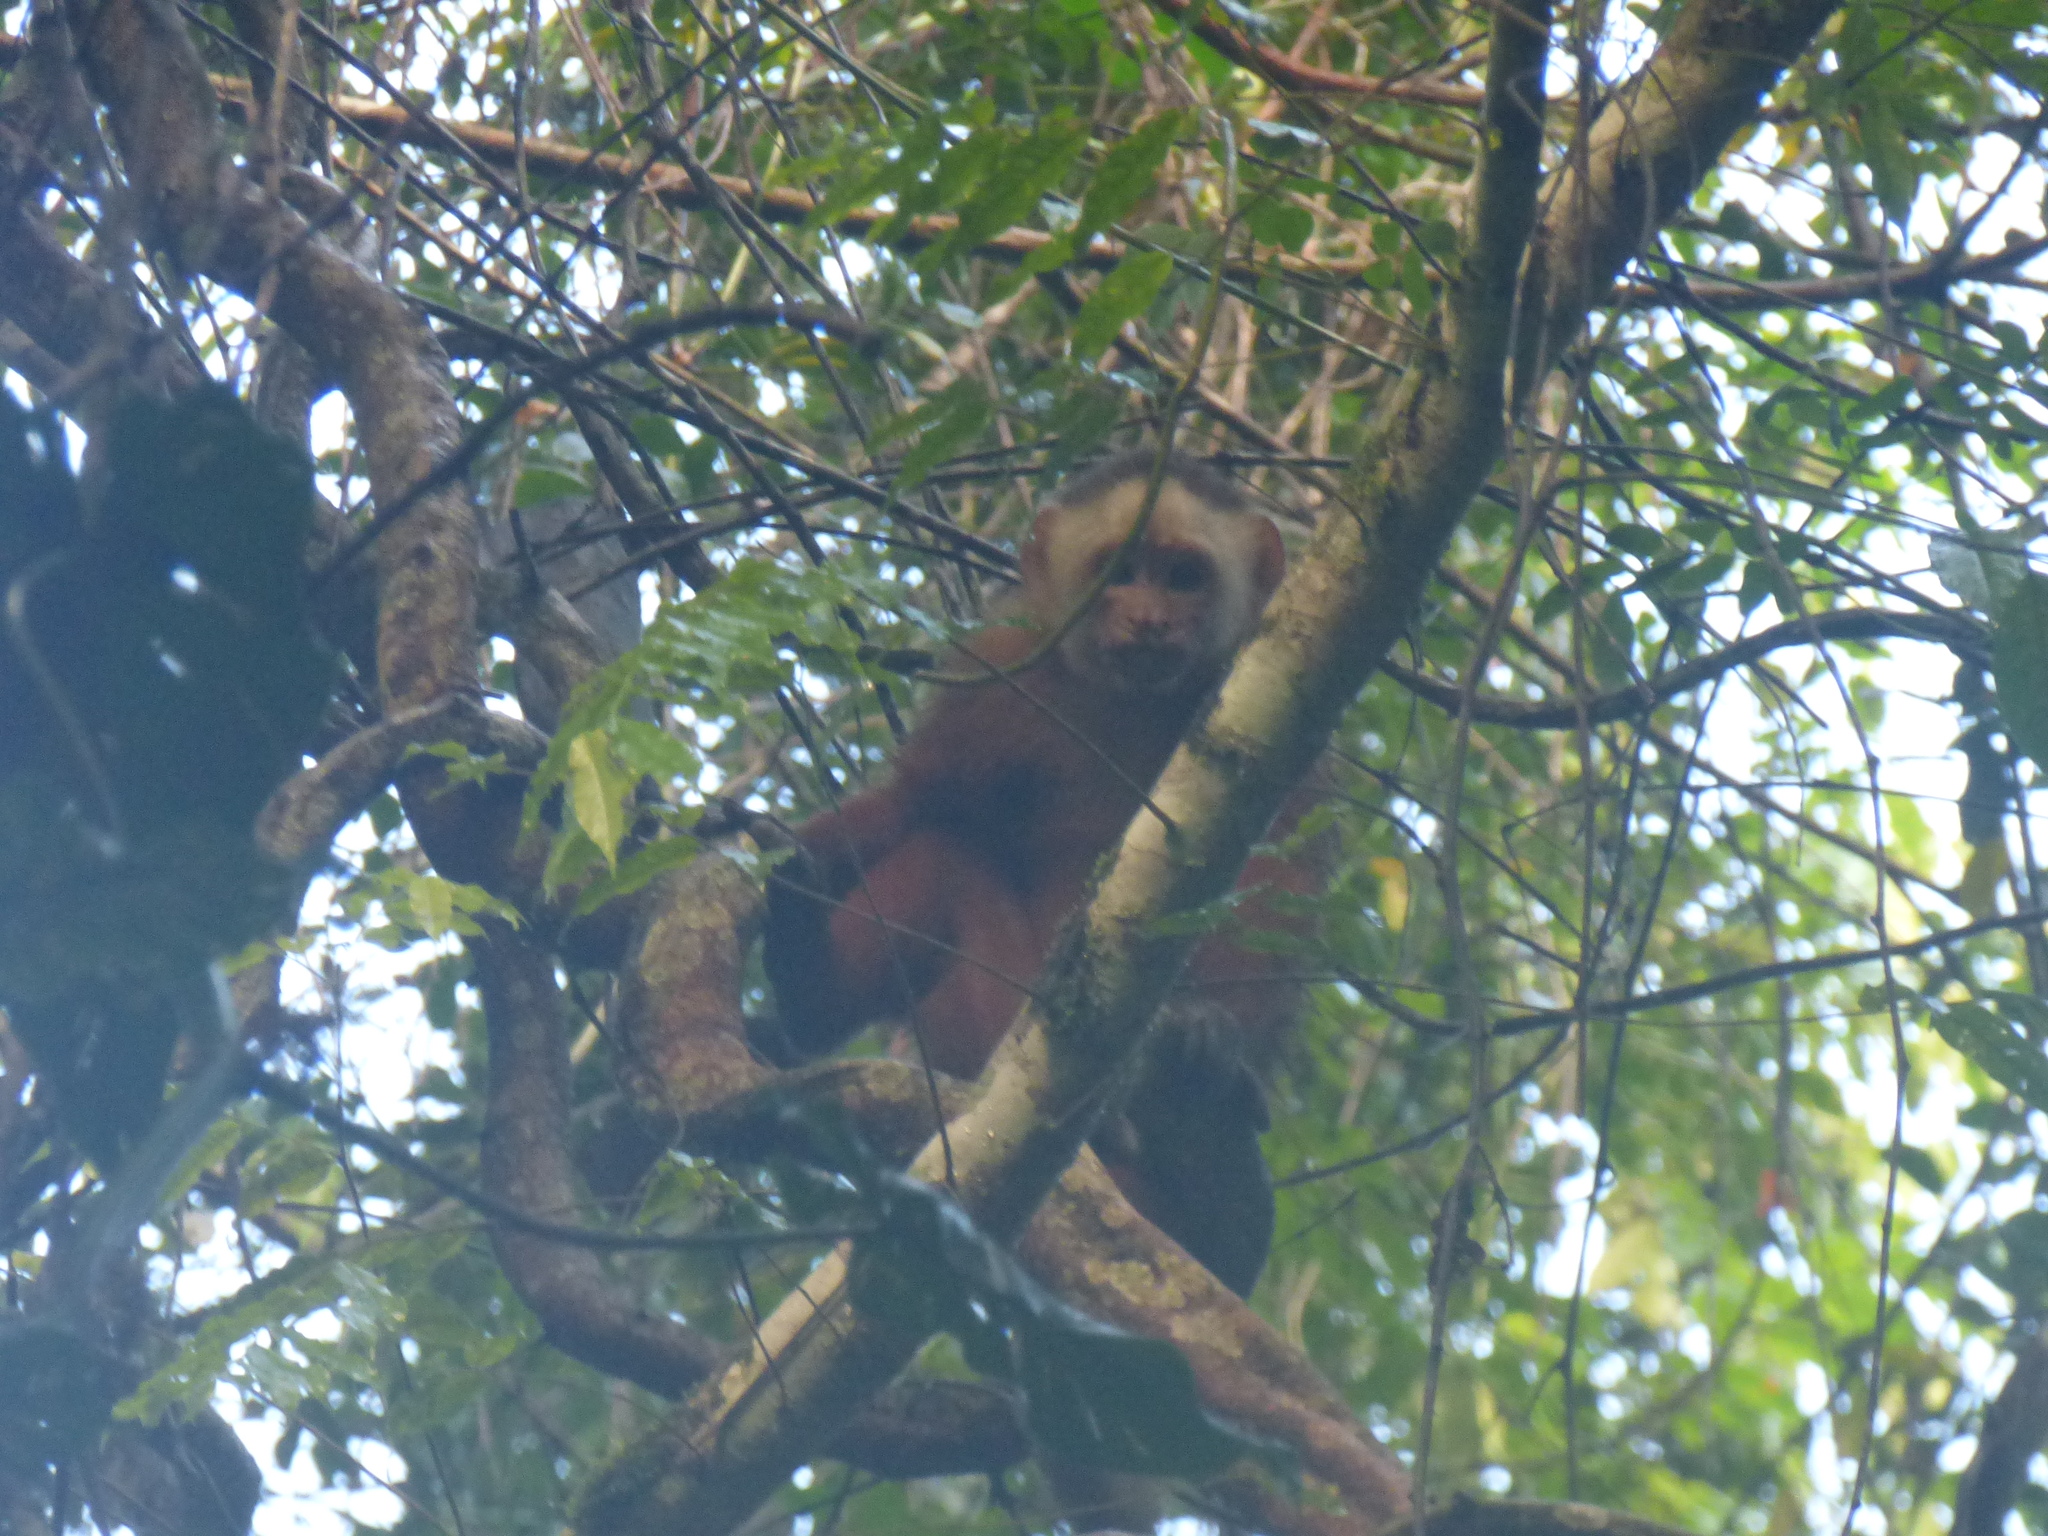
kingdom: Animalia
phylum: Chordata
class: Mammalia
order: Primates
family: Cebidae
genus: Cebus
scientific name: Cebus versicolor
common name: Varied capuchin
